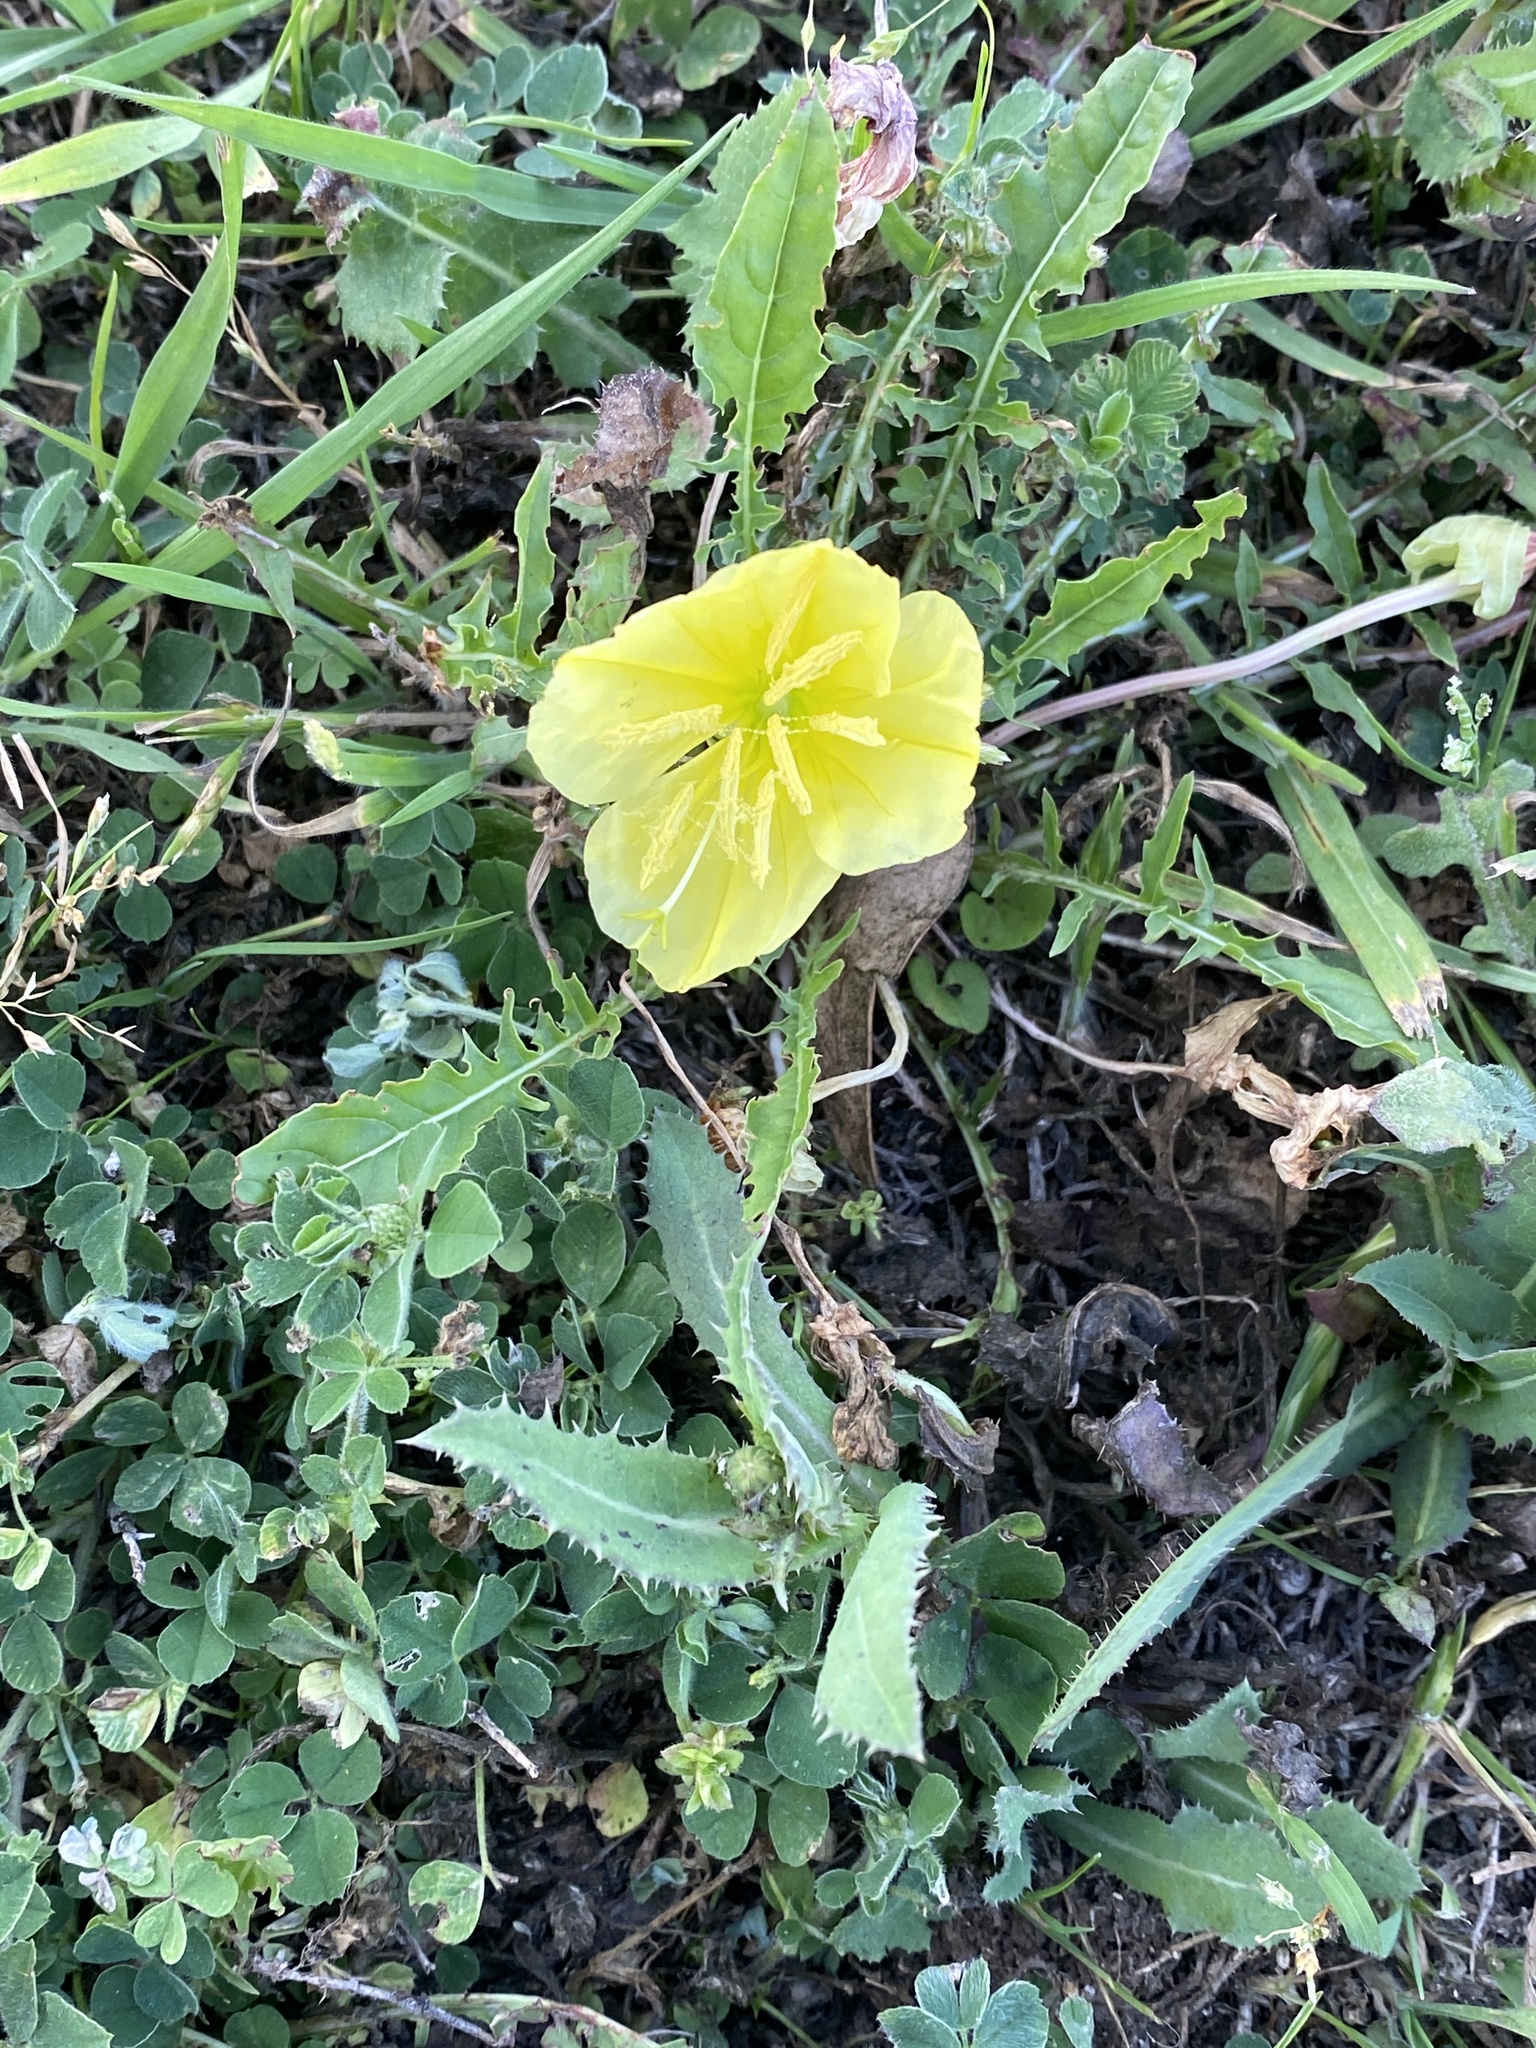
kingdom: Plantae
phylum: Tracheophyta
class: Magnoliopsida
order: Myrtales
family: Onagraceae
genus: Oenothera
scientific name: Oenothera triloba
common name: Sessile evening-primrose
